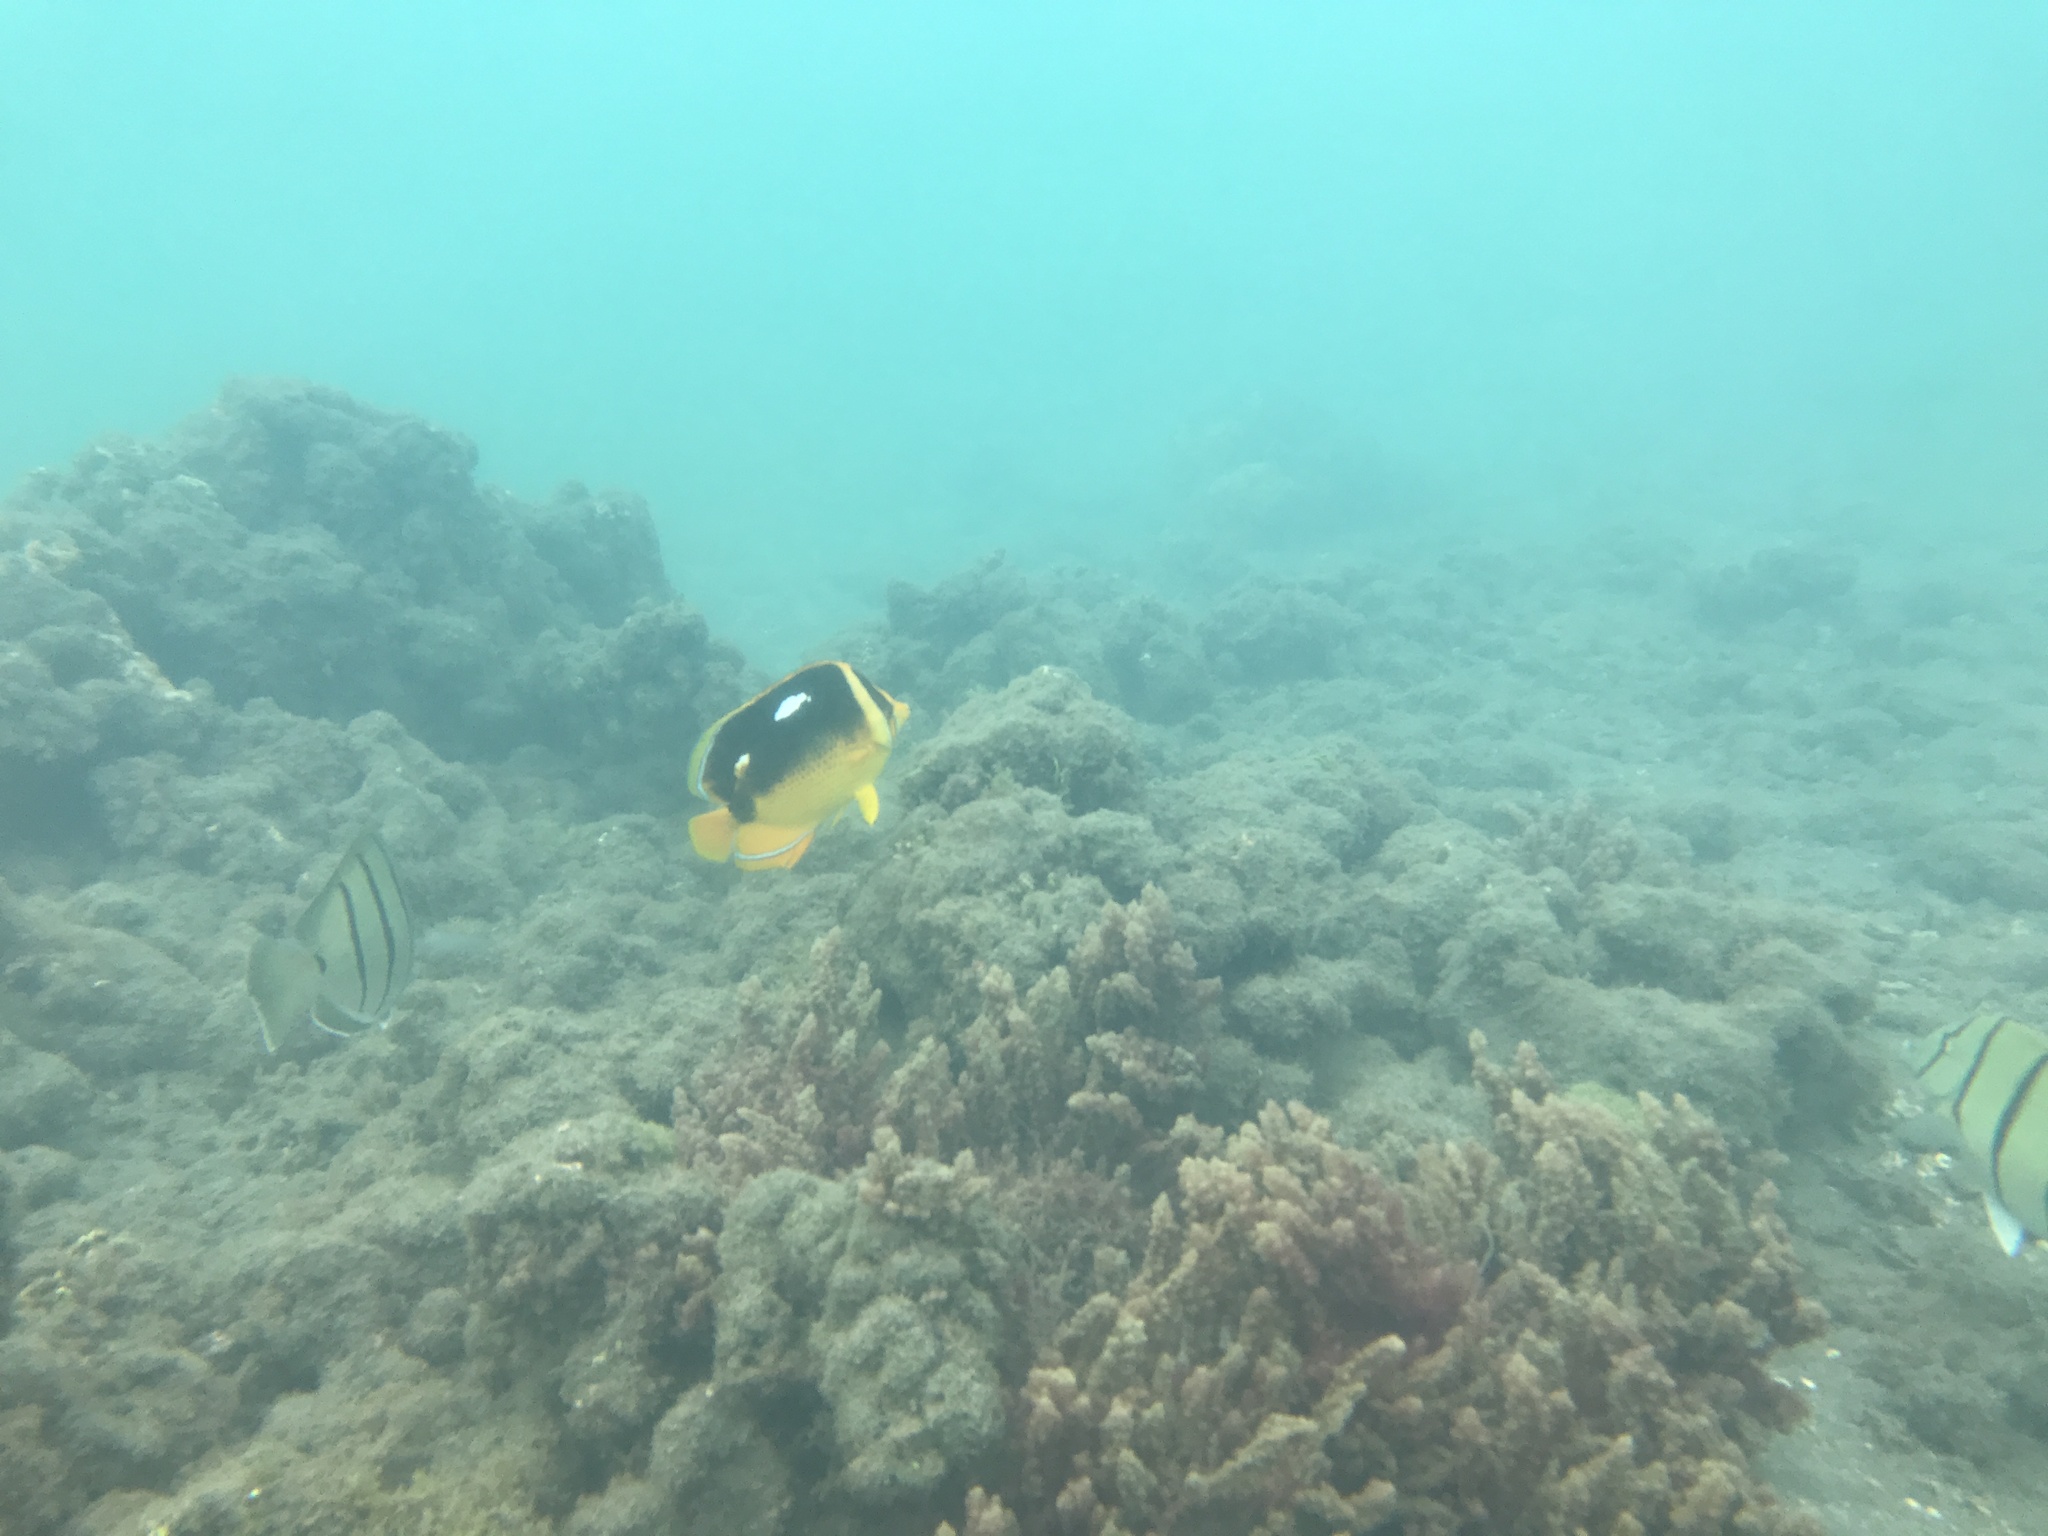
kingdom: Animalia
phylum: Chordata
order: Perciformes
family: Chaetodontidae
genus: Chaetodon
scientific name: Chaetodon quadrimaculatus
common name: Fourspot butterflyfish
